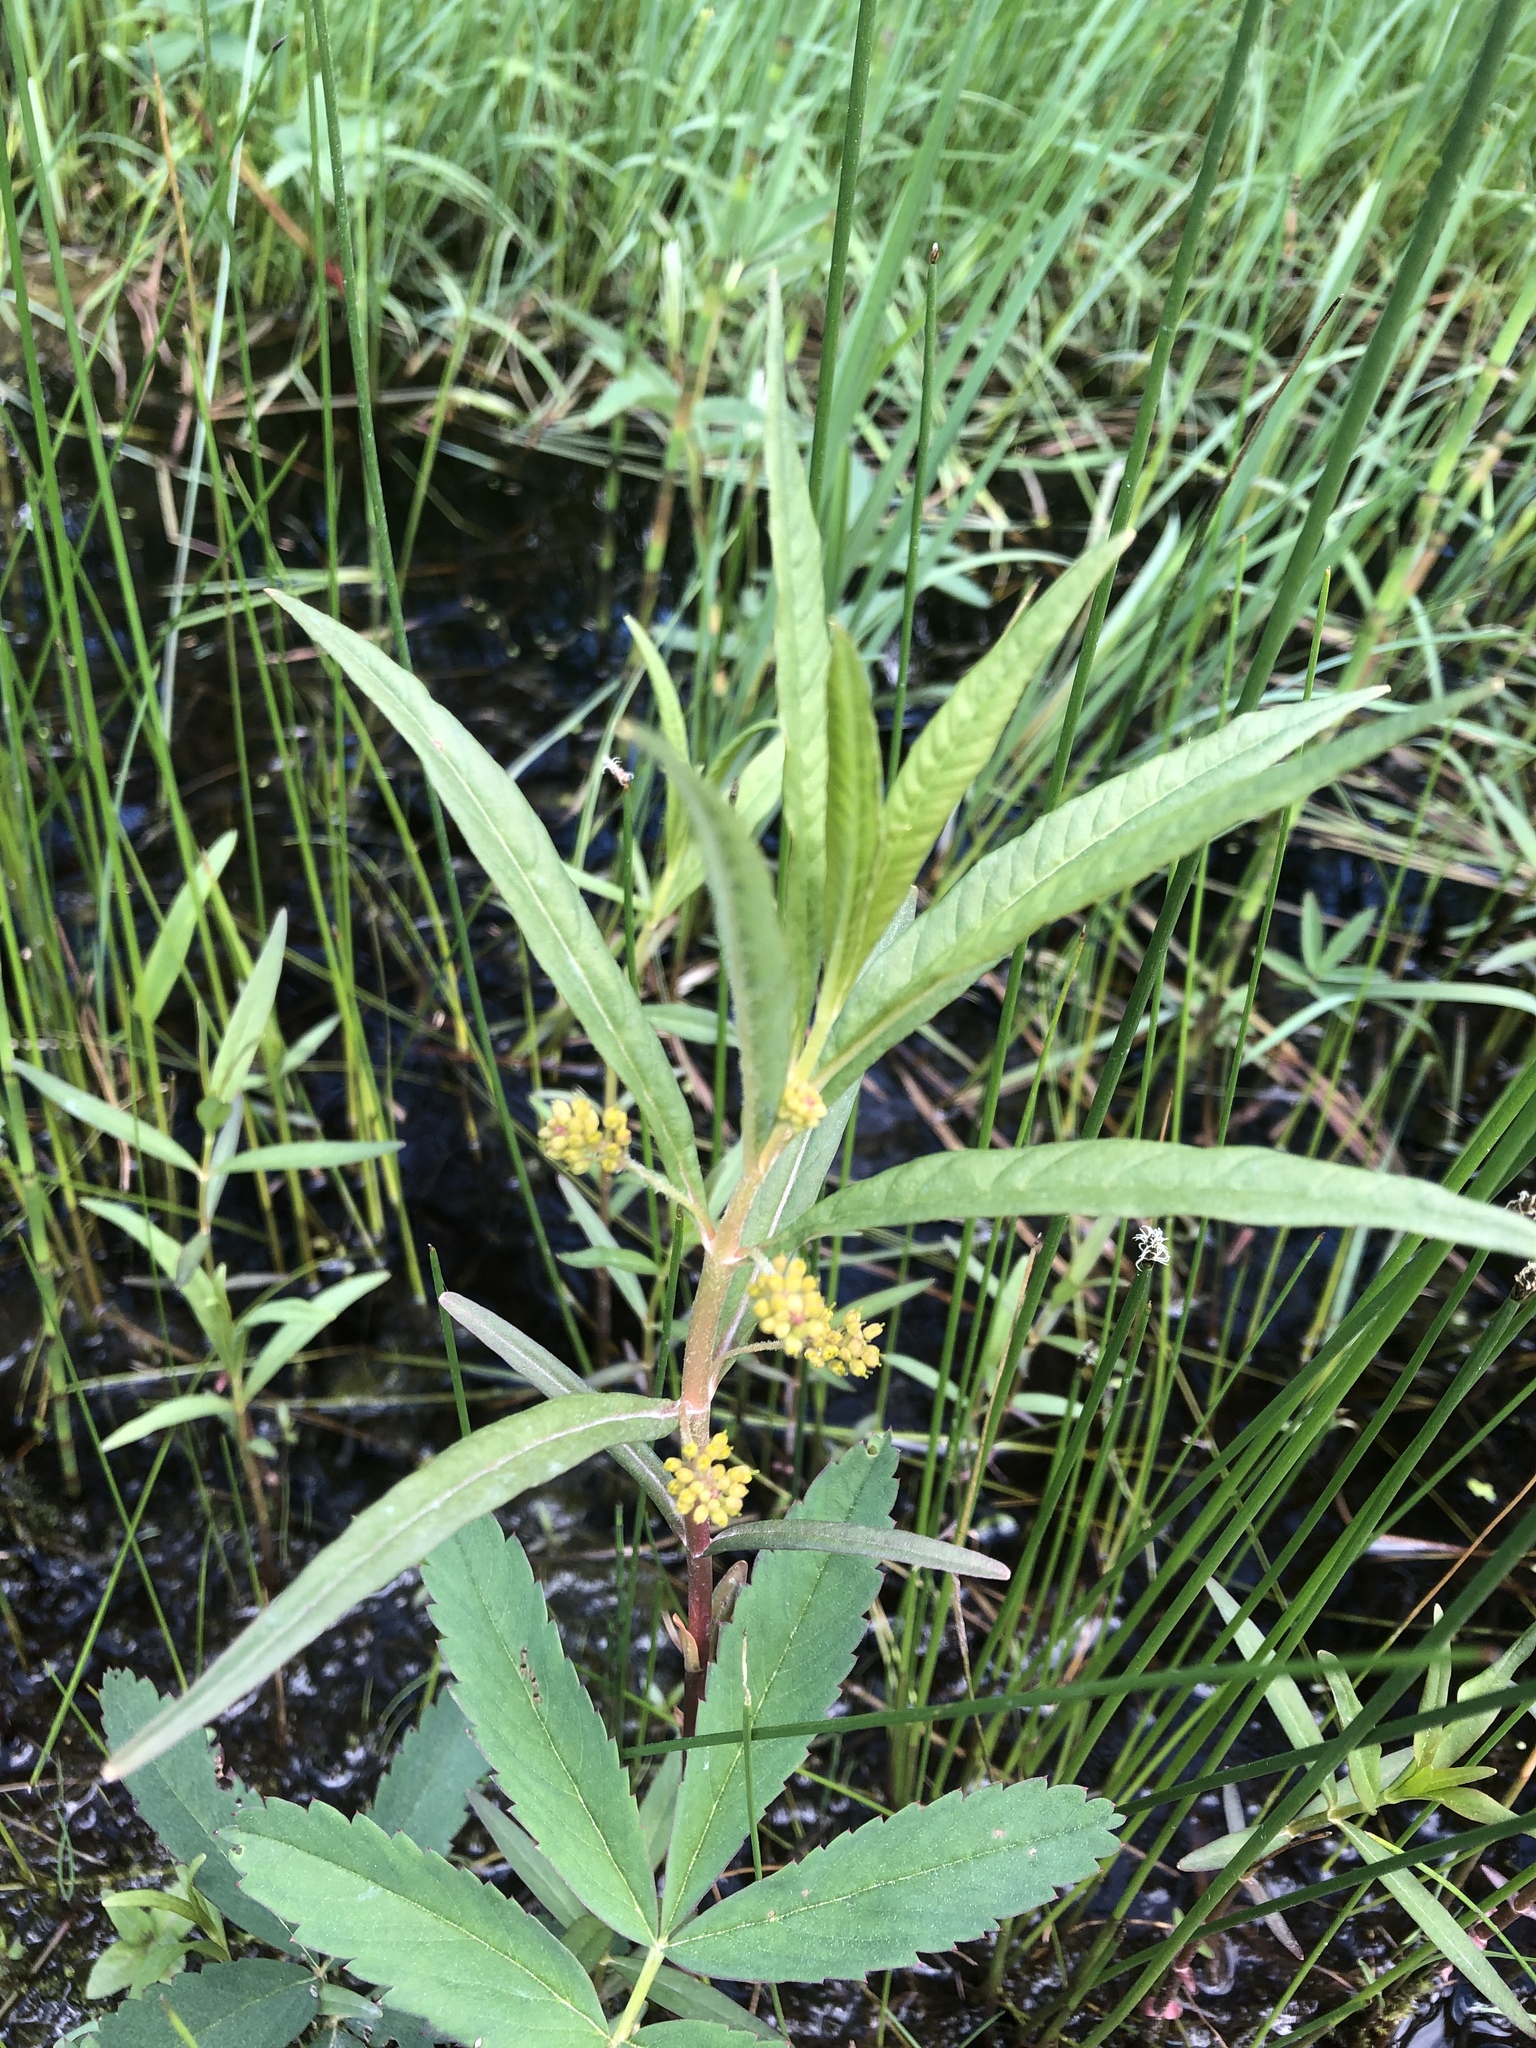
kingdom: Plantae
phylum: Tracheophyta
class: Magnoliopsida
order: Ericales
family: Primulaceae
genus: Lysimachia
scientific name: Lysimachia thyrsiflora
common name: Tufted loosestrife
